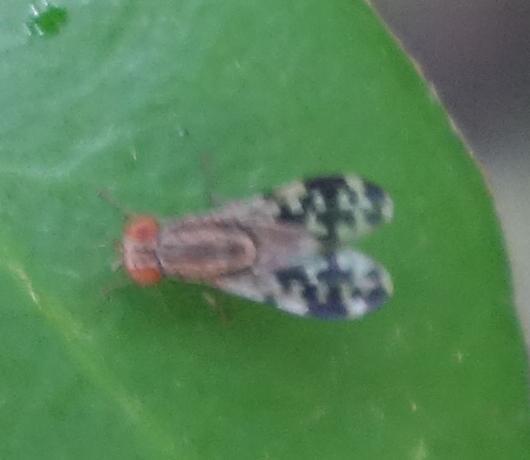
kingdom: Animalia
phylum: Arthropoda
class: Insecta
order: Diptera
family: Lauxaniidae
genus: Homoneura
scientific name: Homoneura caloptera
